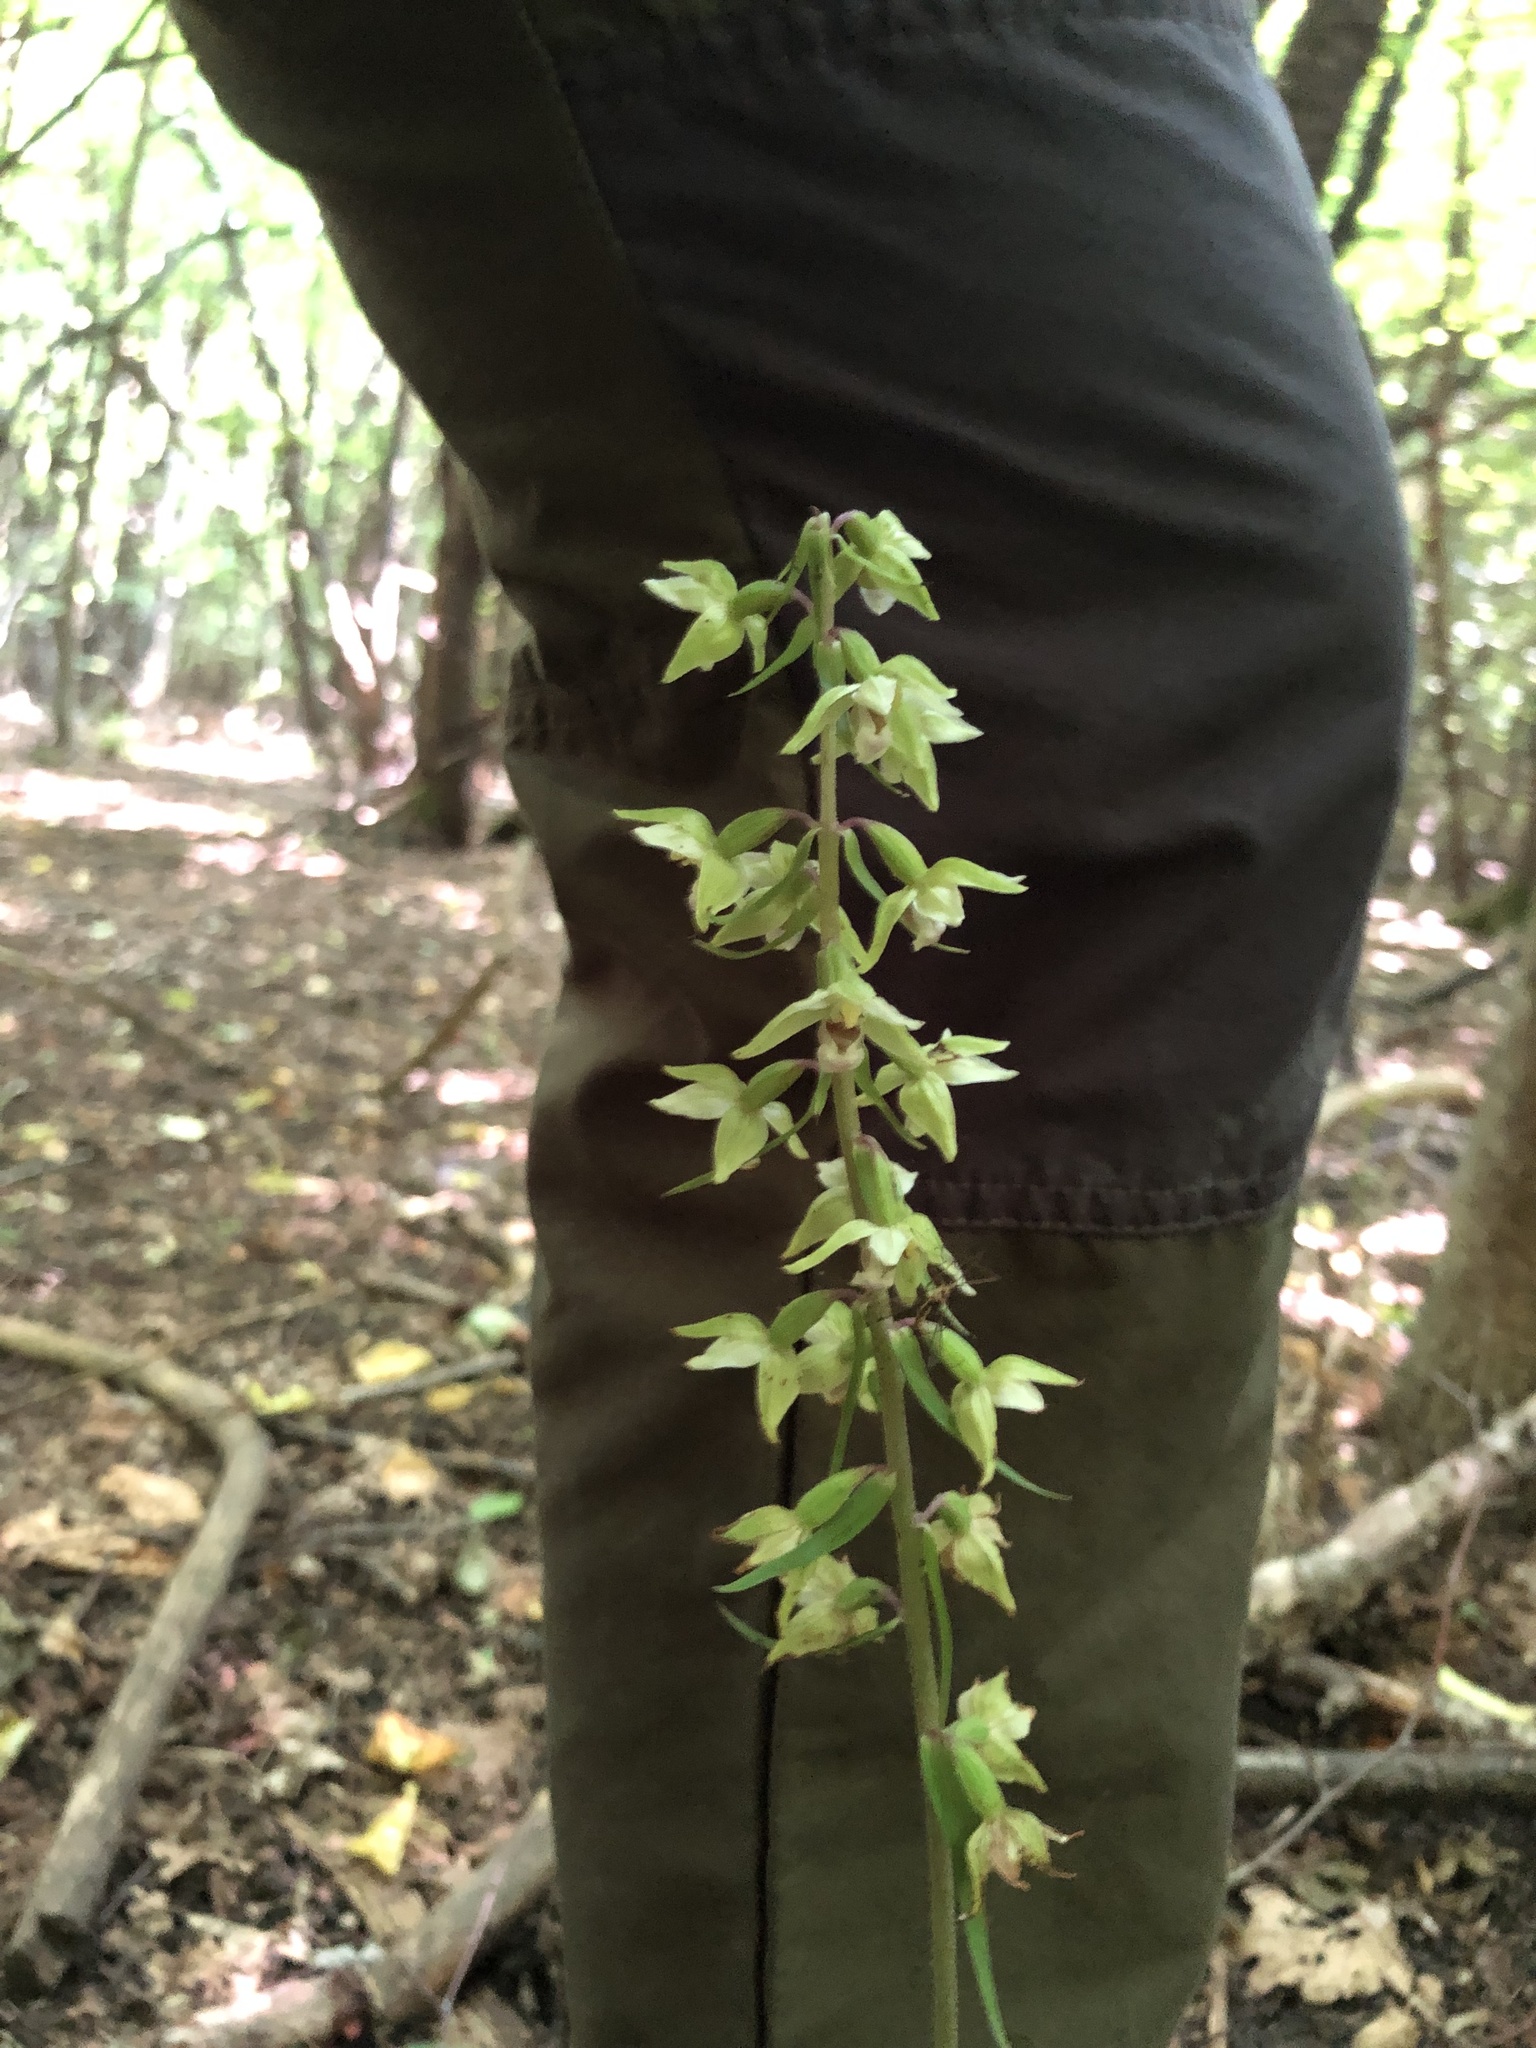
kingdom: Plantae
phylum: Tracheophyta
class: Liliopsida
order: Asparagales
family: Orchidaceae
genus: Epipactis
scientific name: Epipactis purpurata
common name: Violet helleborine
